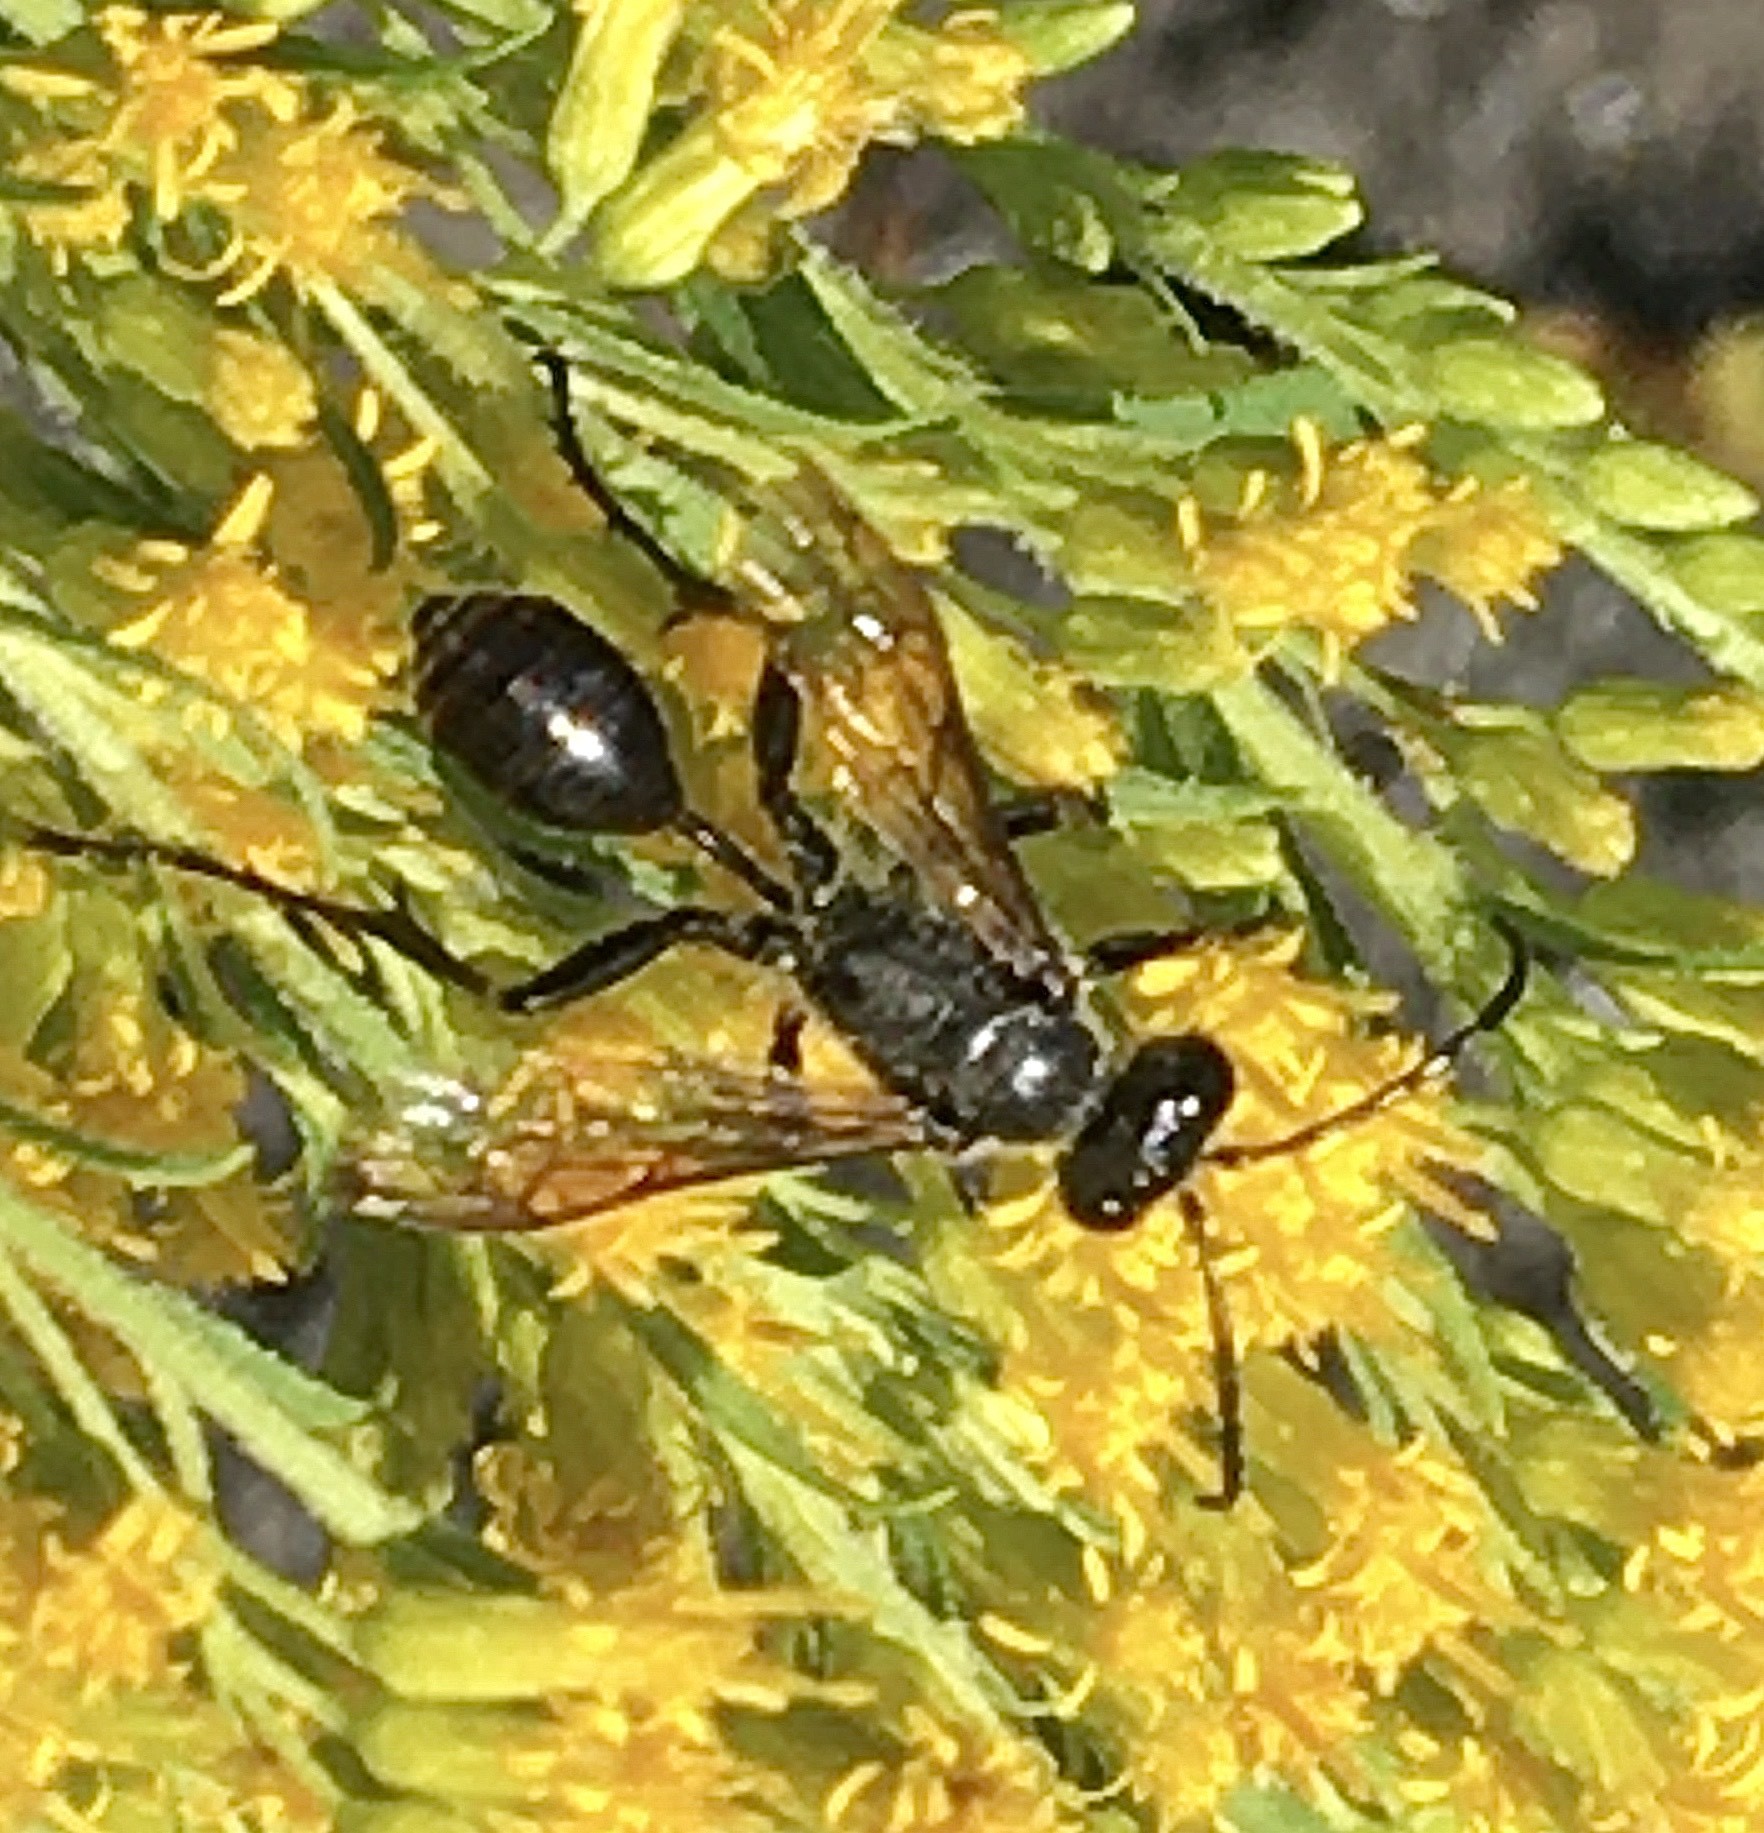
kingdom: Animalia
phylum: Arthropoda
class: Insecta
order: Hymenoptera
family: Sphecidae
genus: Isodontia
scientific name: Isodontia mexicana
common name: Mud dauber
